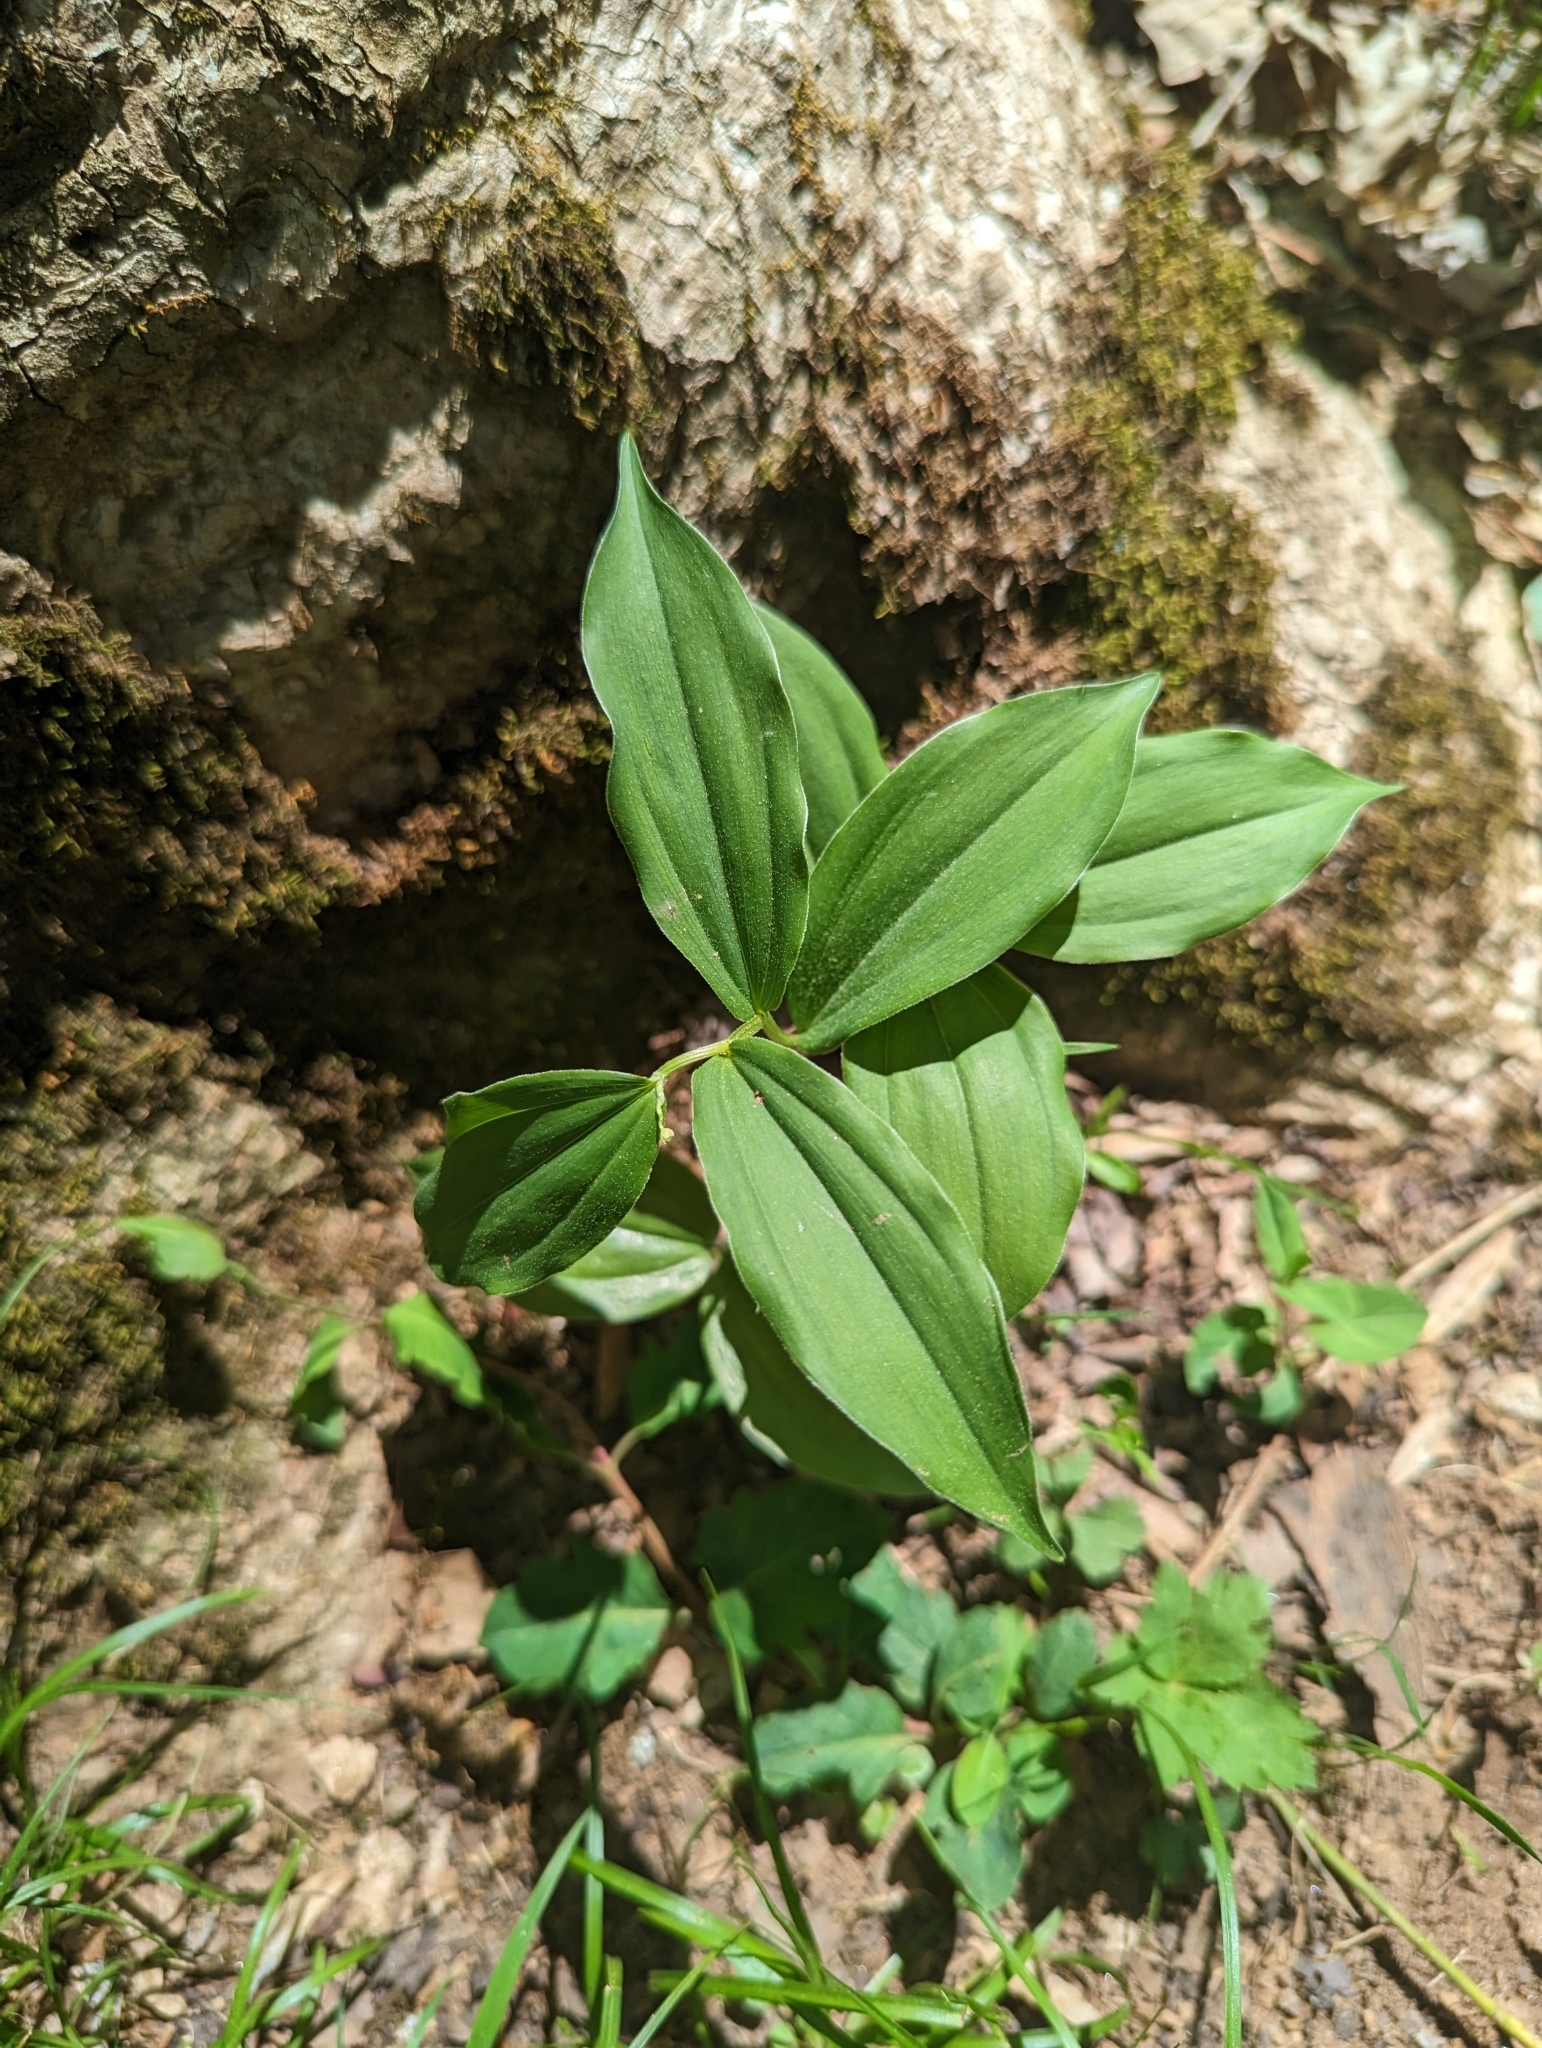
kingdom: Plantae
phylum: Tracheophyta
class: Liliopsida
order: Asparagales
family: Asparagaceae
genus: Maianthemum
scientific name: Maianthemum racemosum
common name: False spikenard
